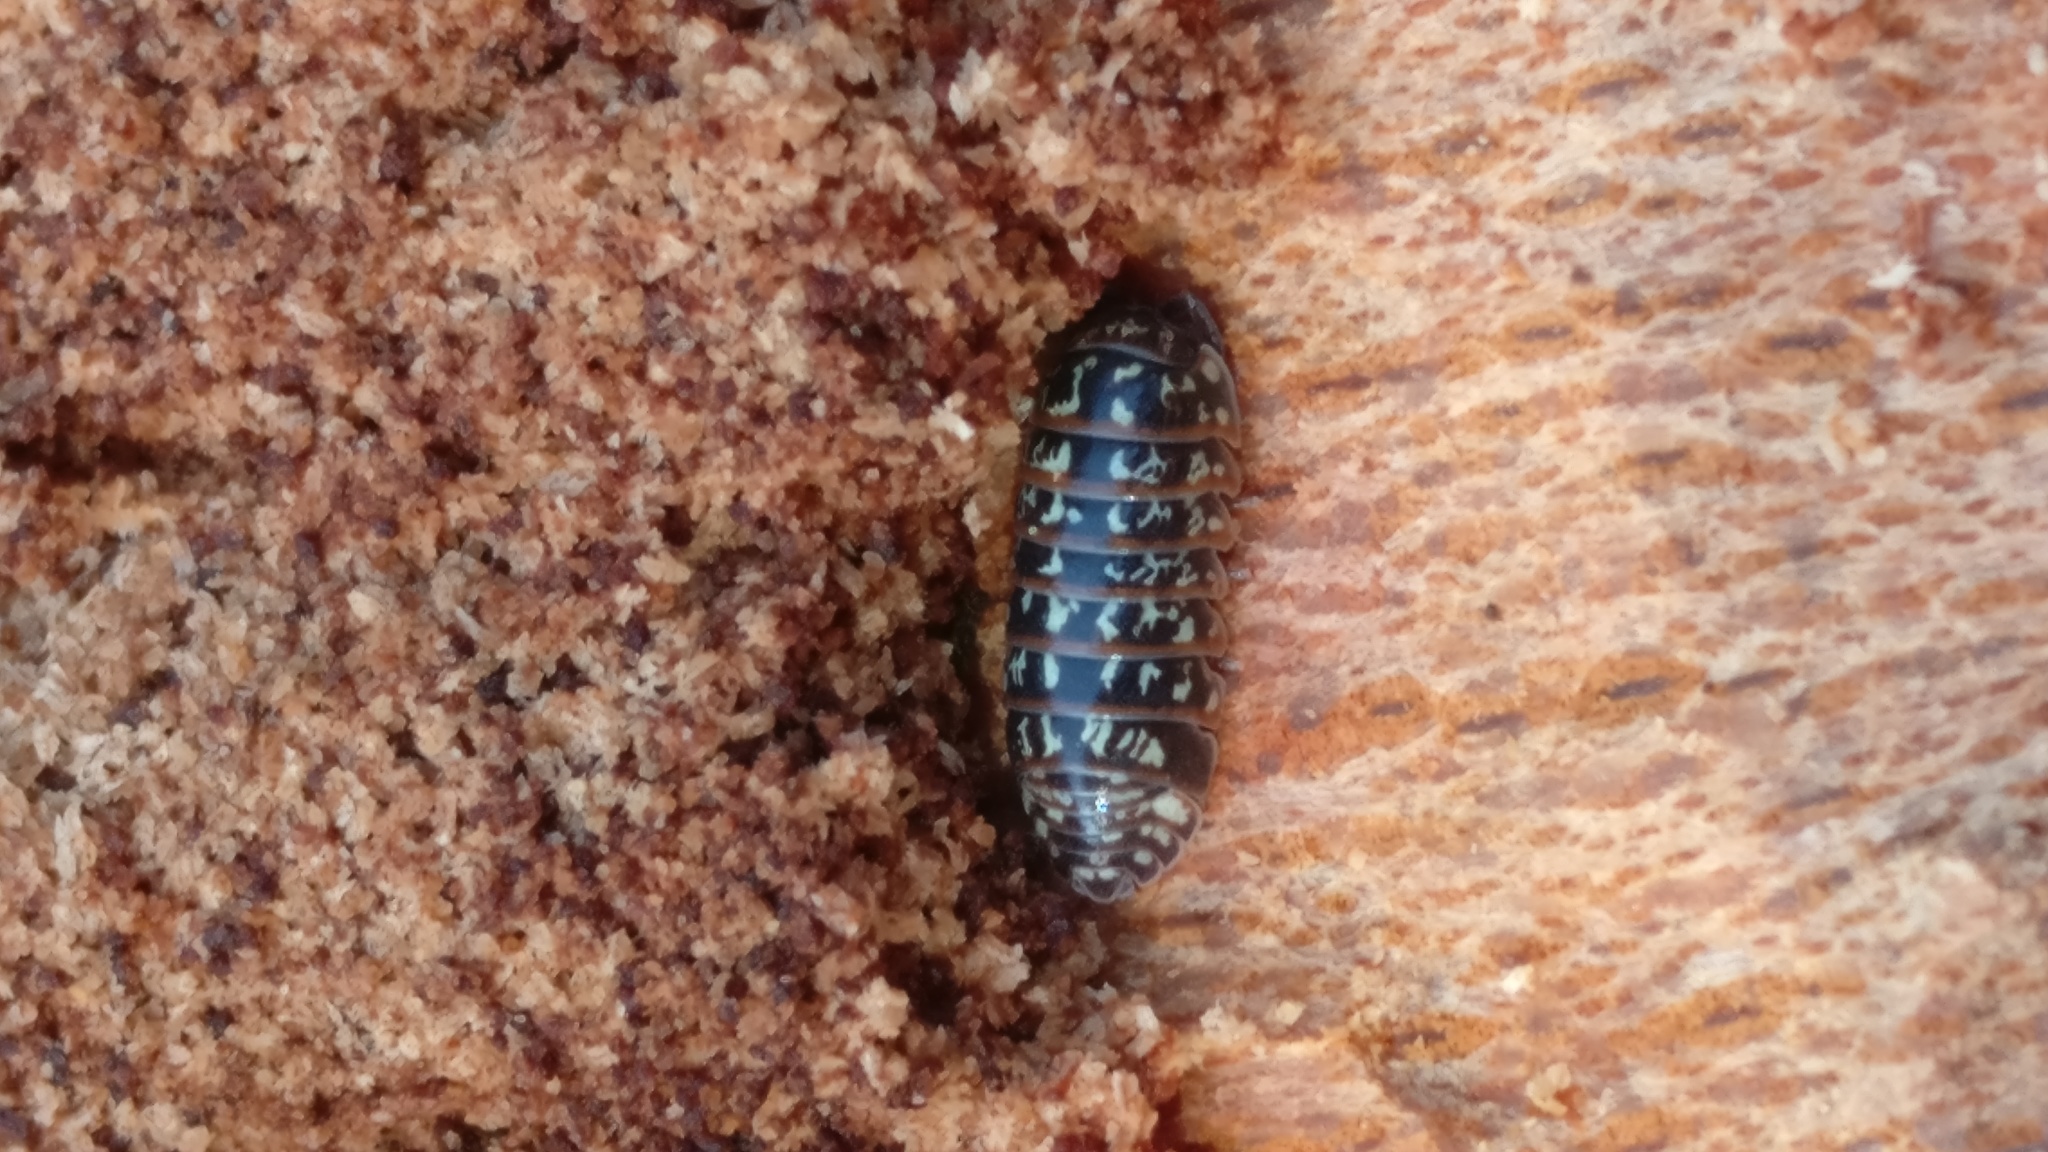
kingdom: Animalia
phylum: Arthropoda
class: Malacostraca
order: Isopoda
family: Armadillidiidae
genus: Armadillidium
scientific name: Armadillidium pulchellum
